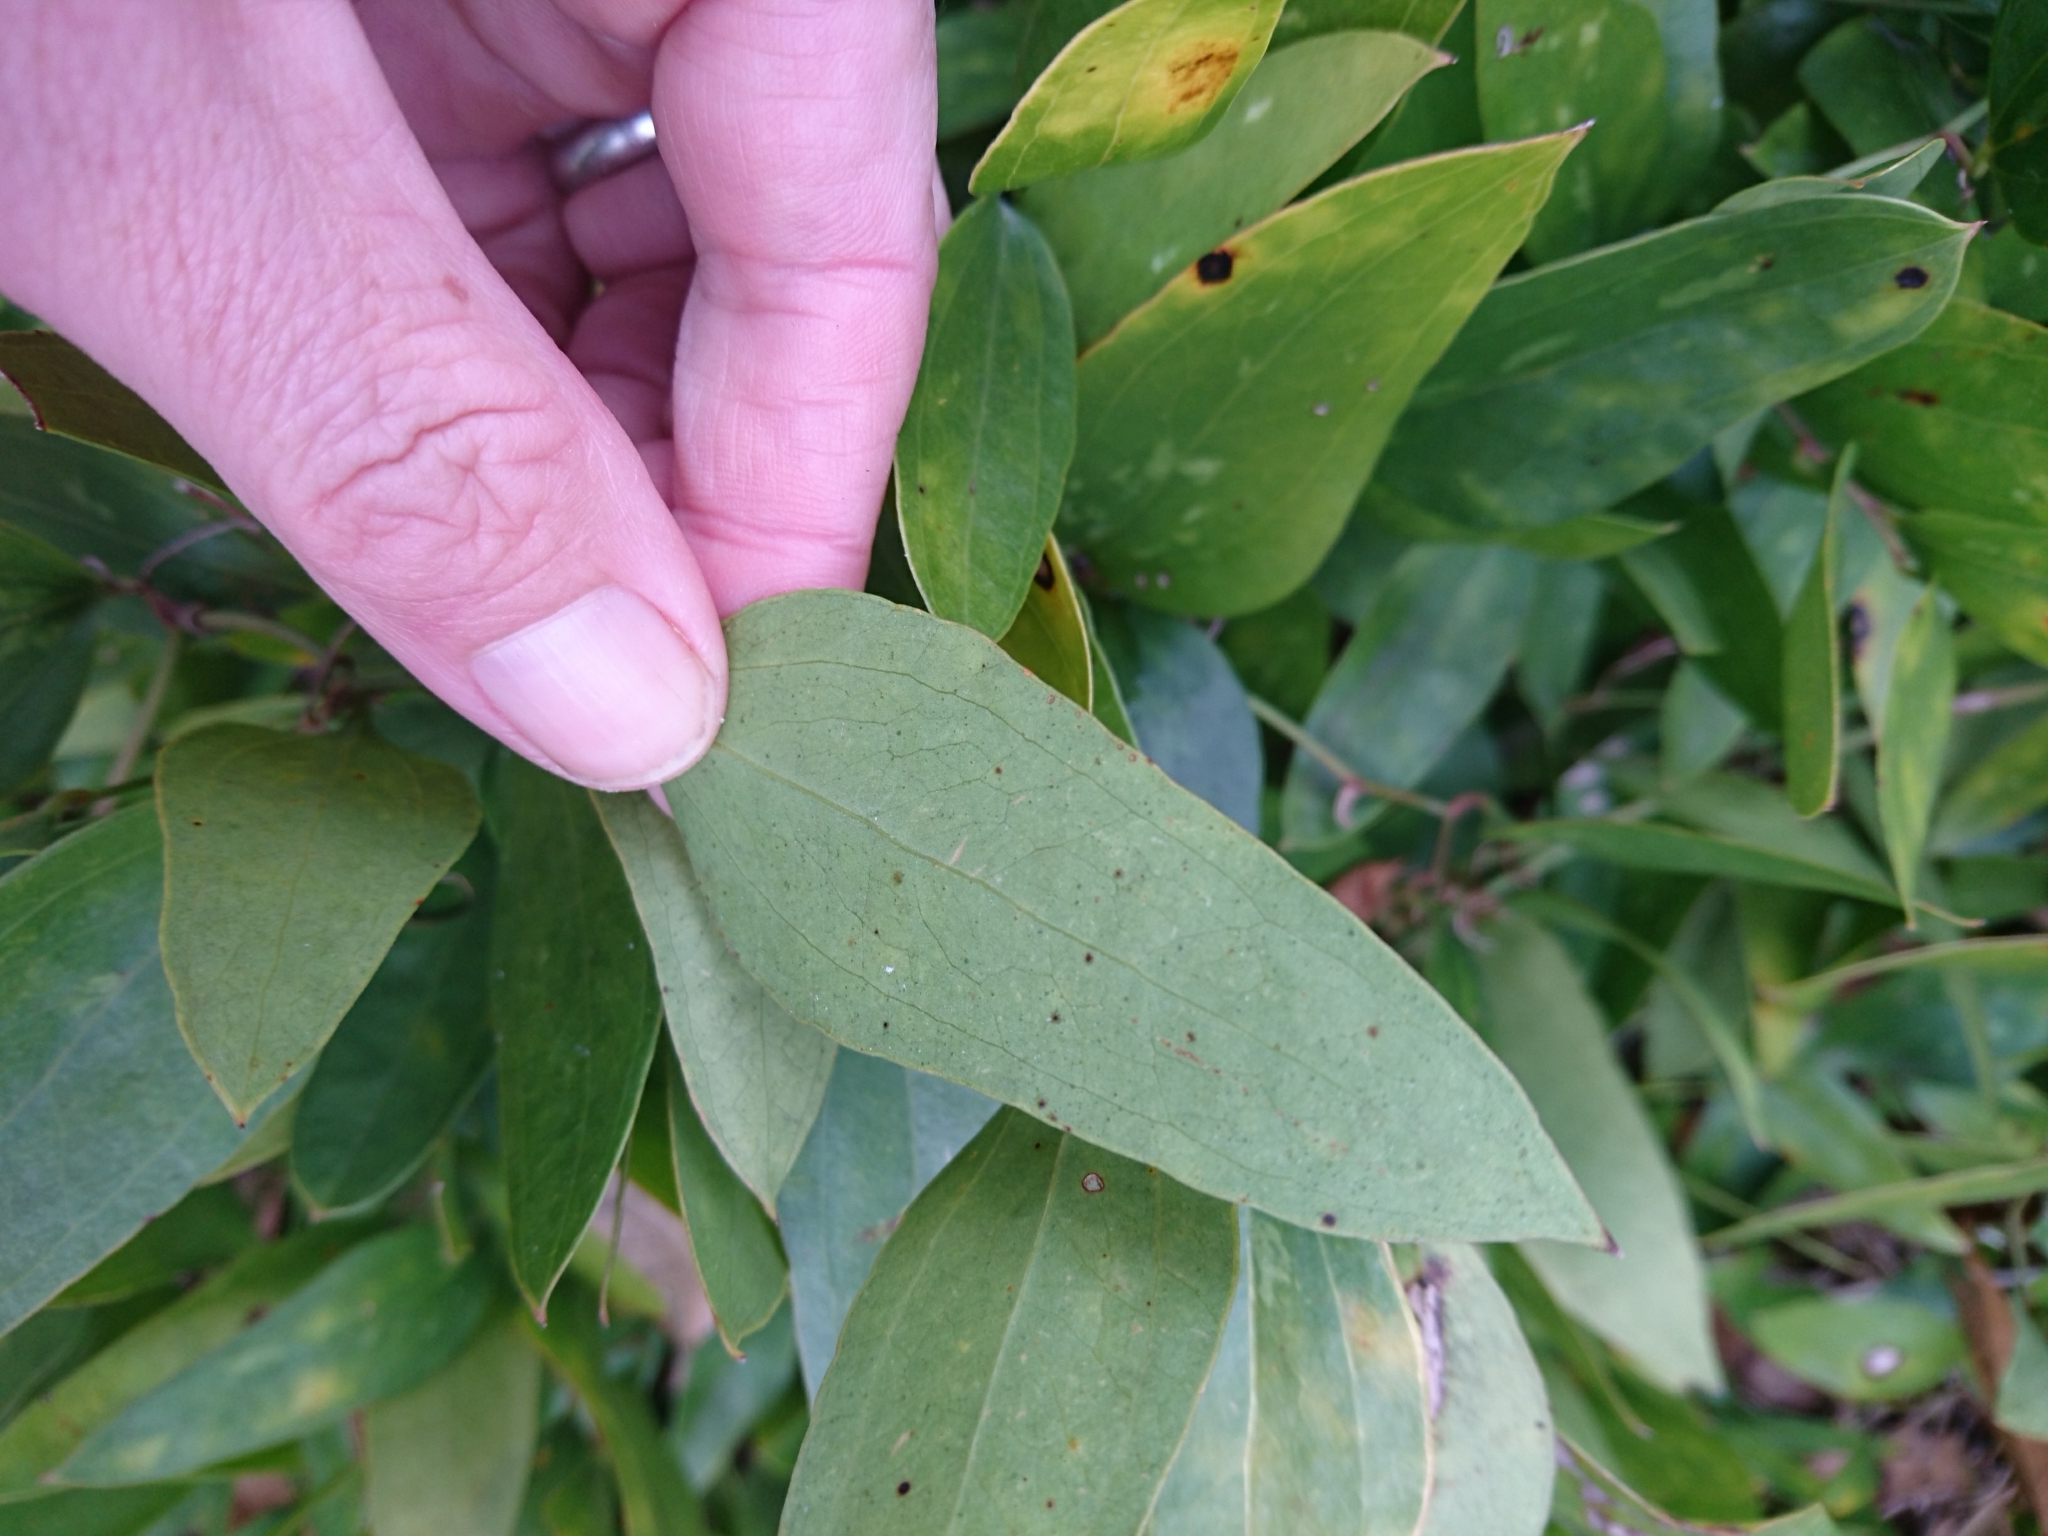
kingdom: Plantae
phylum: Tracheophyta
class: Liliopsida
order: Liliales
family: Smilacaceae
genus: Smilax
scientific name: Smilax auriculata
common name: Wild bamboo
